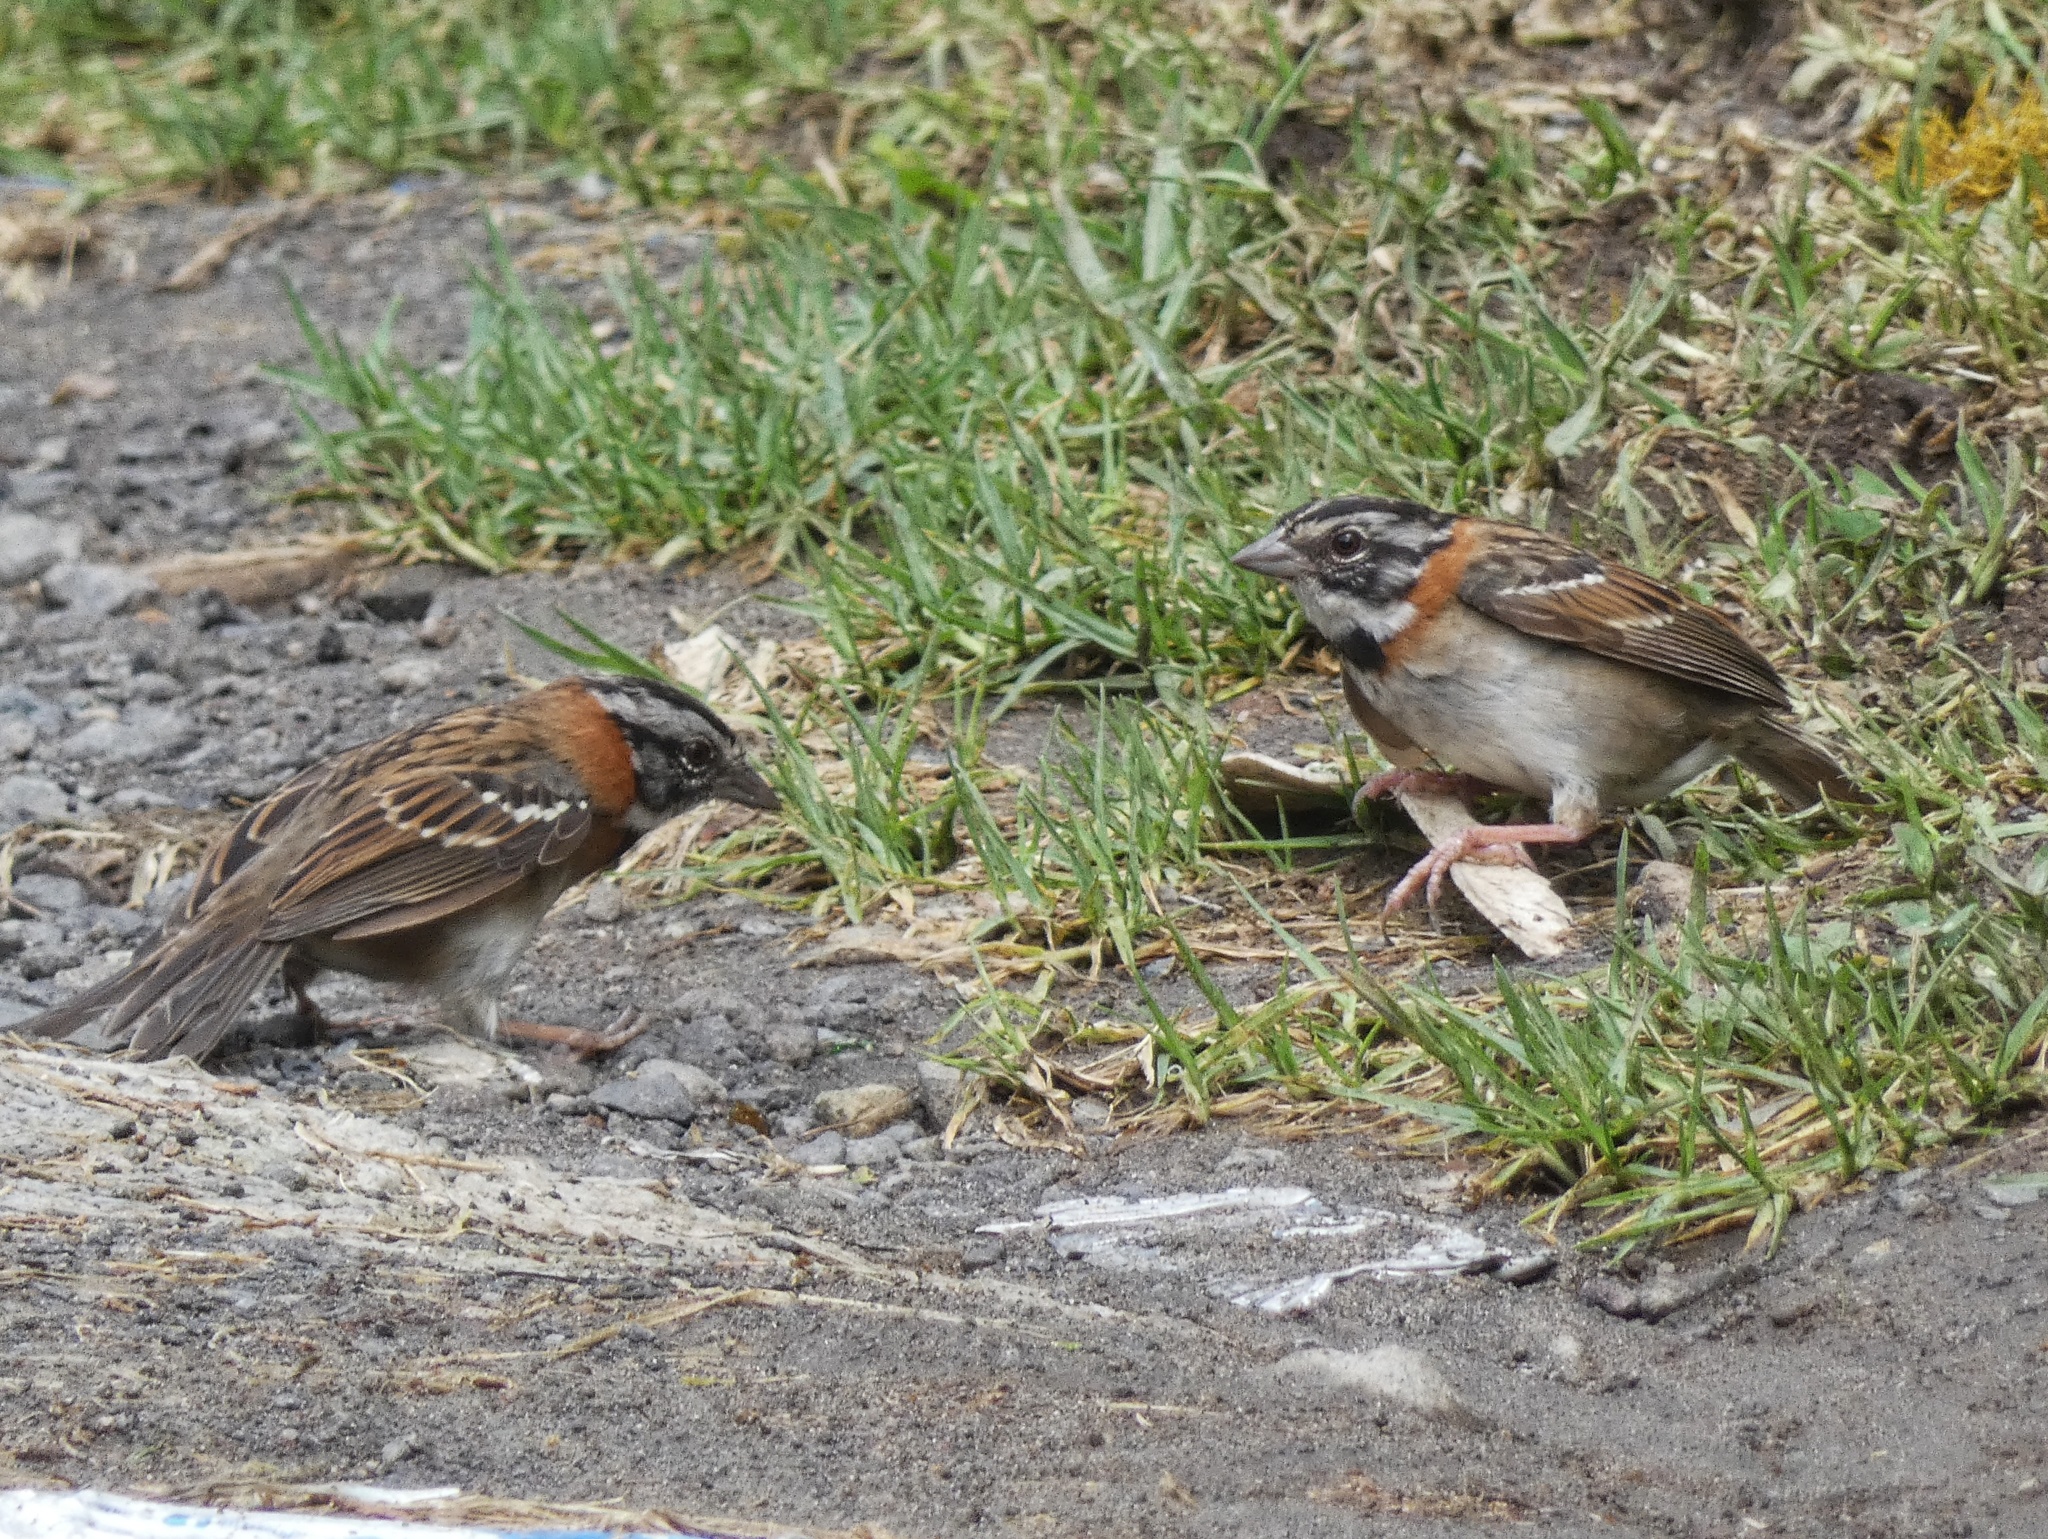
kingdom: Animalia
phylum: Chordata
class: Aves
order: Passeriformes
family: Passerellidae
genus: Zonotrichia
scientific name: Zonotrichia capensis
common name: Rufous-collared sparrow
